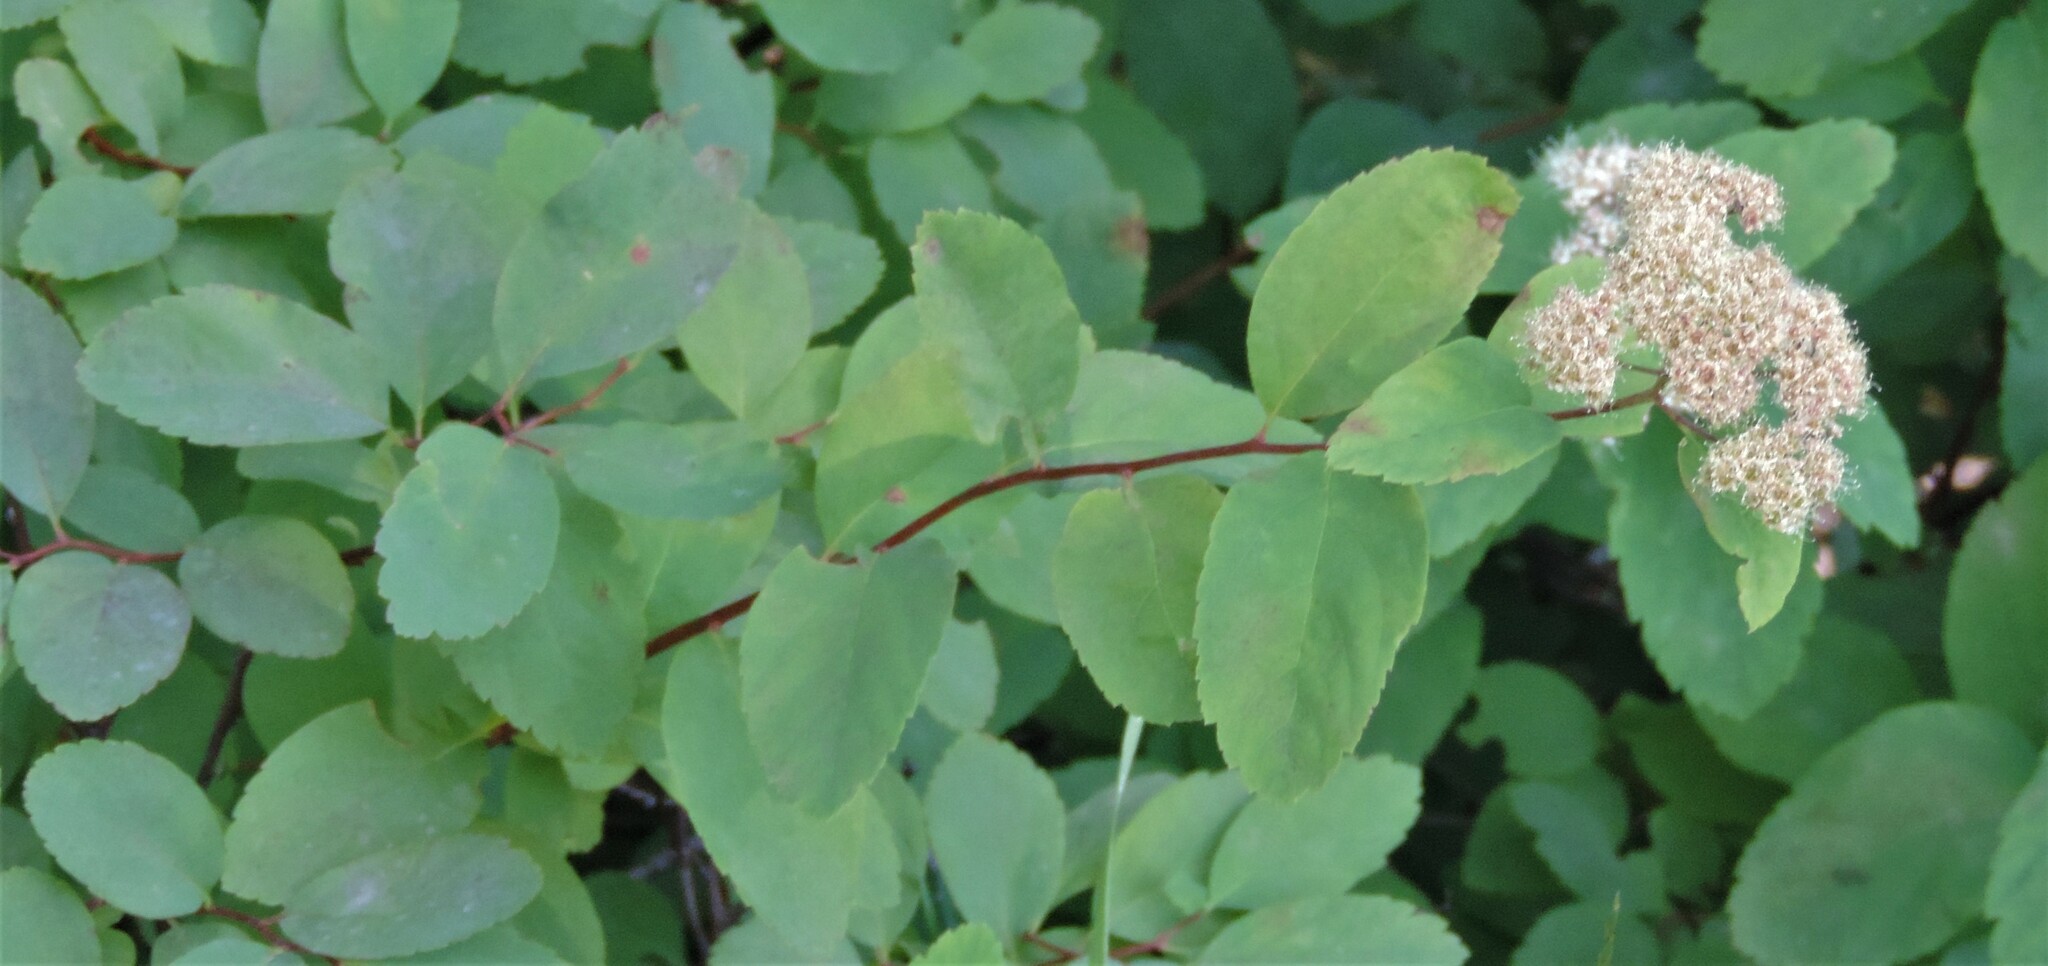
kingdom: Plantae
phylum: Tracheophyta
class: Magnoliopsida
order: Rosales
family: Rosaceae
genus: Spiraea
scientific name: Spiraea lucida
